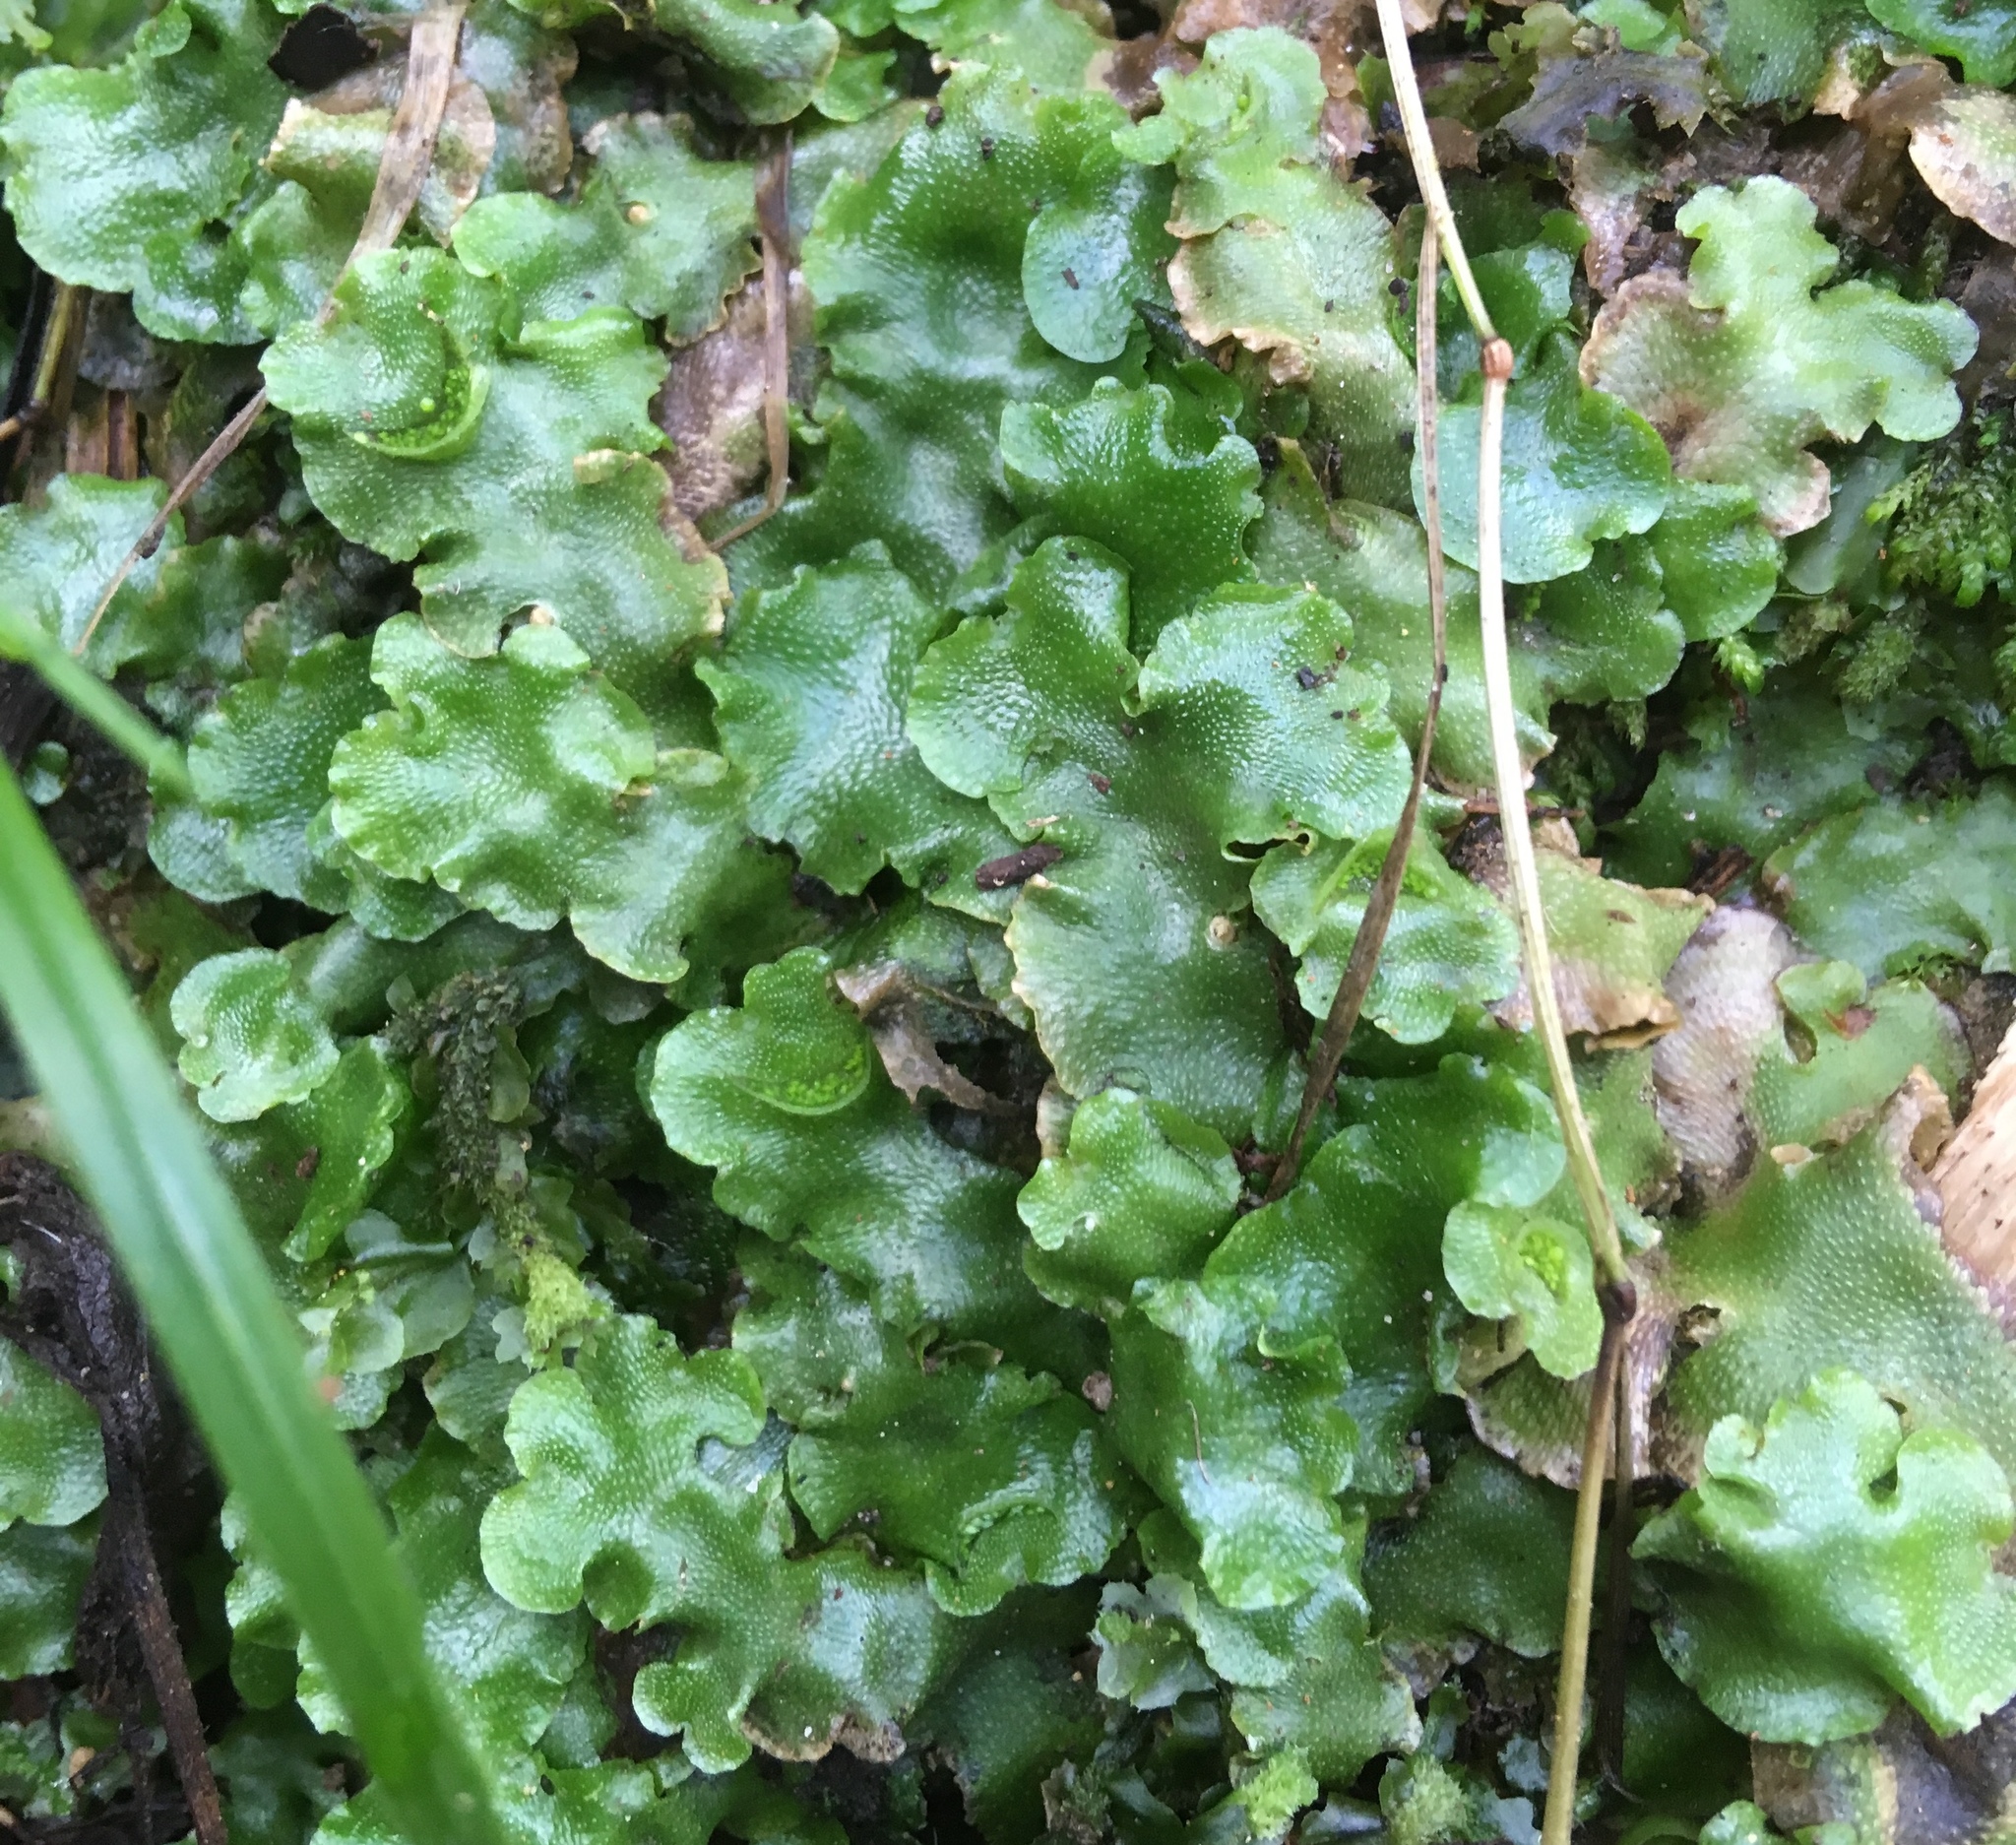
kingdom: Plantae
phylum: Marchantiophyta
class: Marchantiopsida
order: Lunulariales
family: Lunulariaceae
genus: Lunularia
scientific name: Lunularia cruciata
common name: Crescent-cup liverwort
